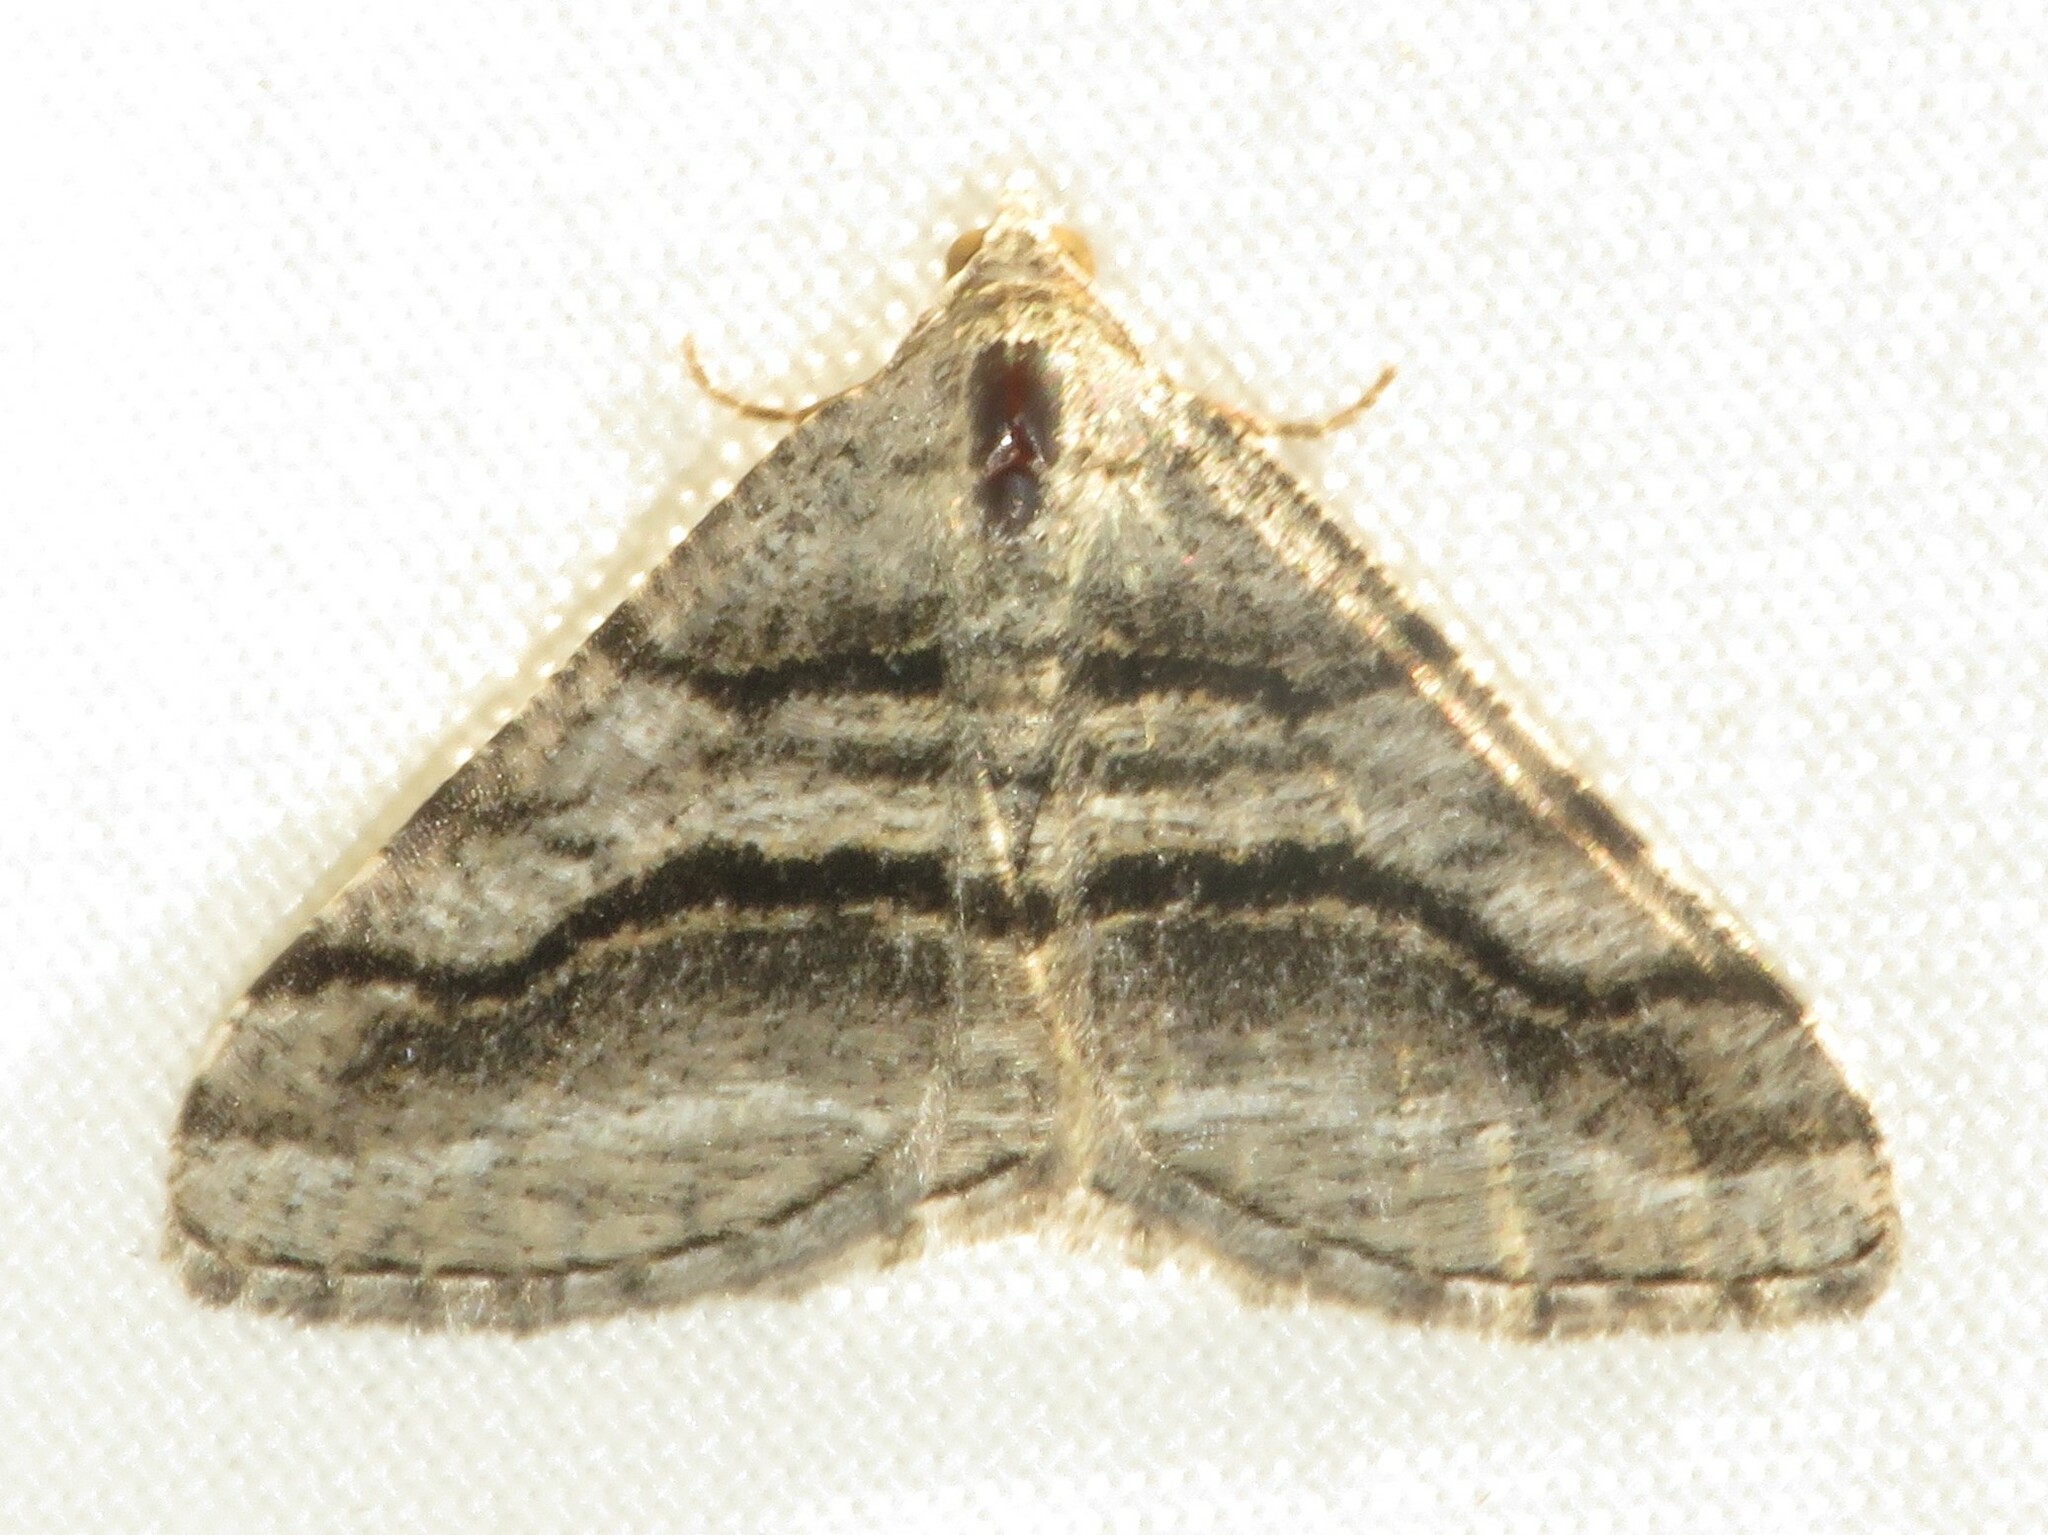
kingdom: Animalia
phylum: Arthropoda
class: Insecta
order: Lepidoptera
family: Geometridae
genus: Digrammia
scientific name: Digrammia continuata
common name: Curve-lined angle
